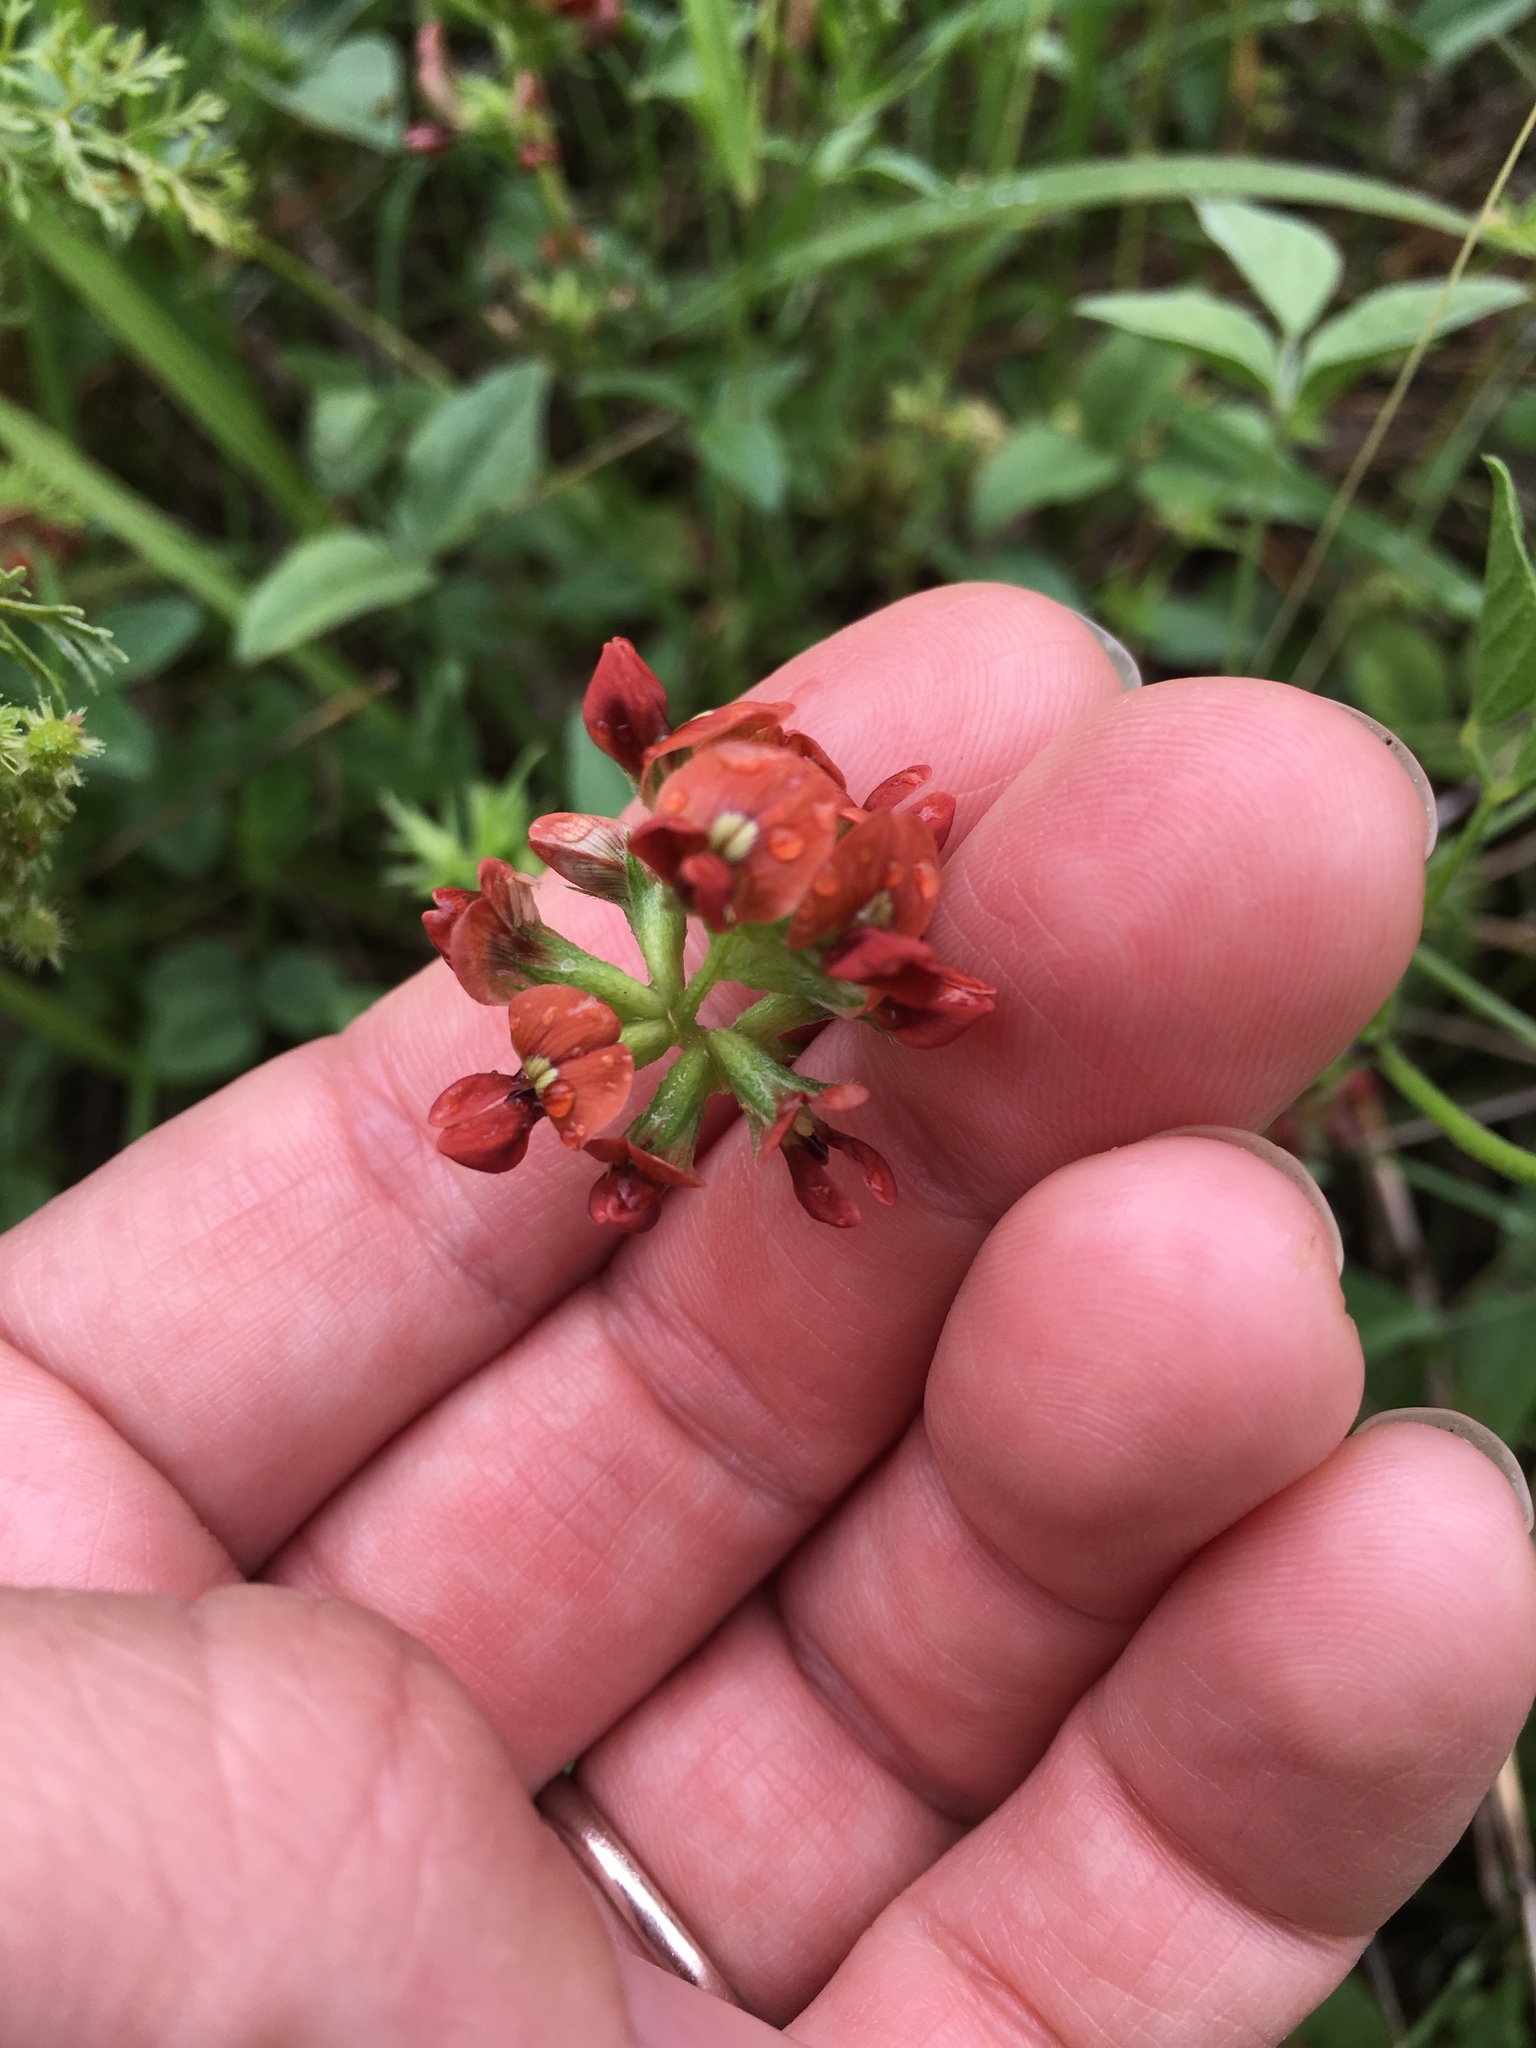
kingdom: Plantae
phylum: Tracheophyta
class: Magnoliopsida
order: Fabales
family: Fabaceae
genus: Pediomelum
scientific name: Pediomelum rhombifolium
